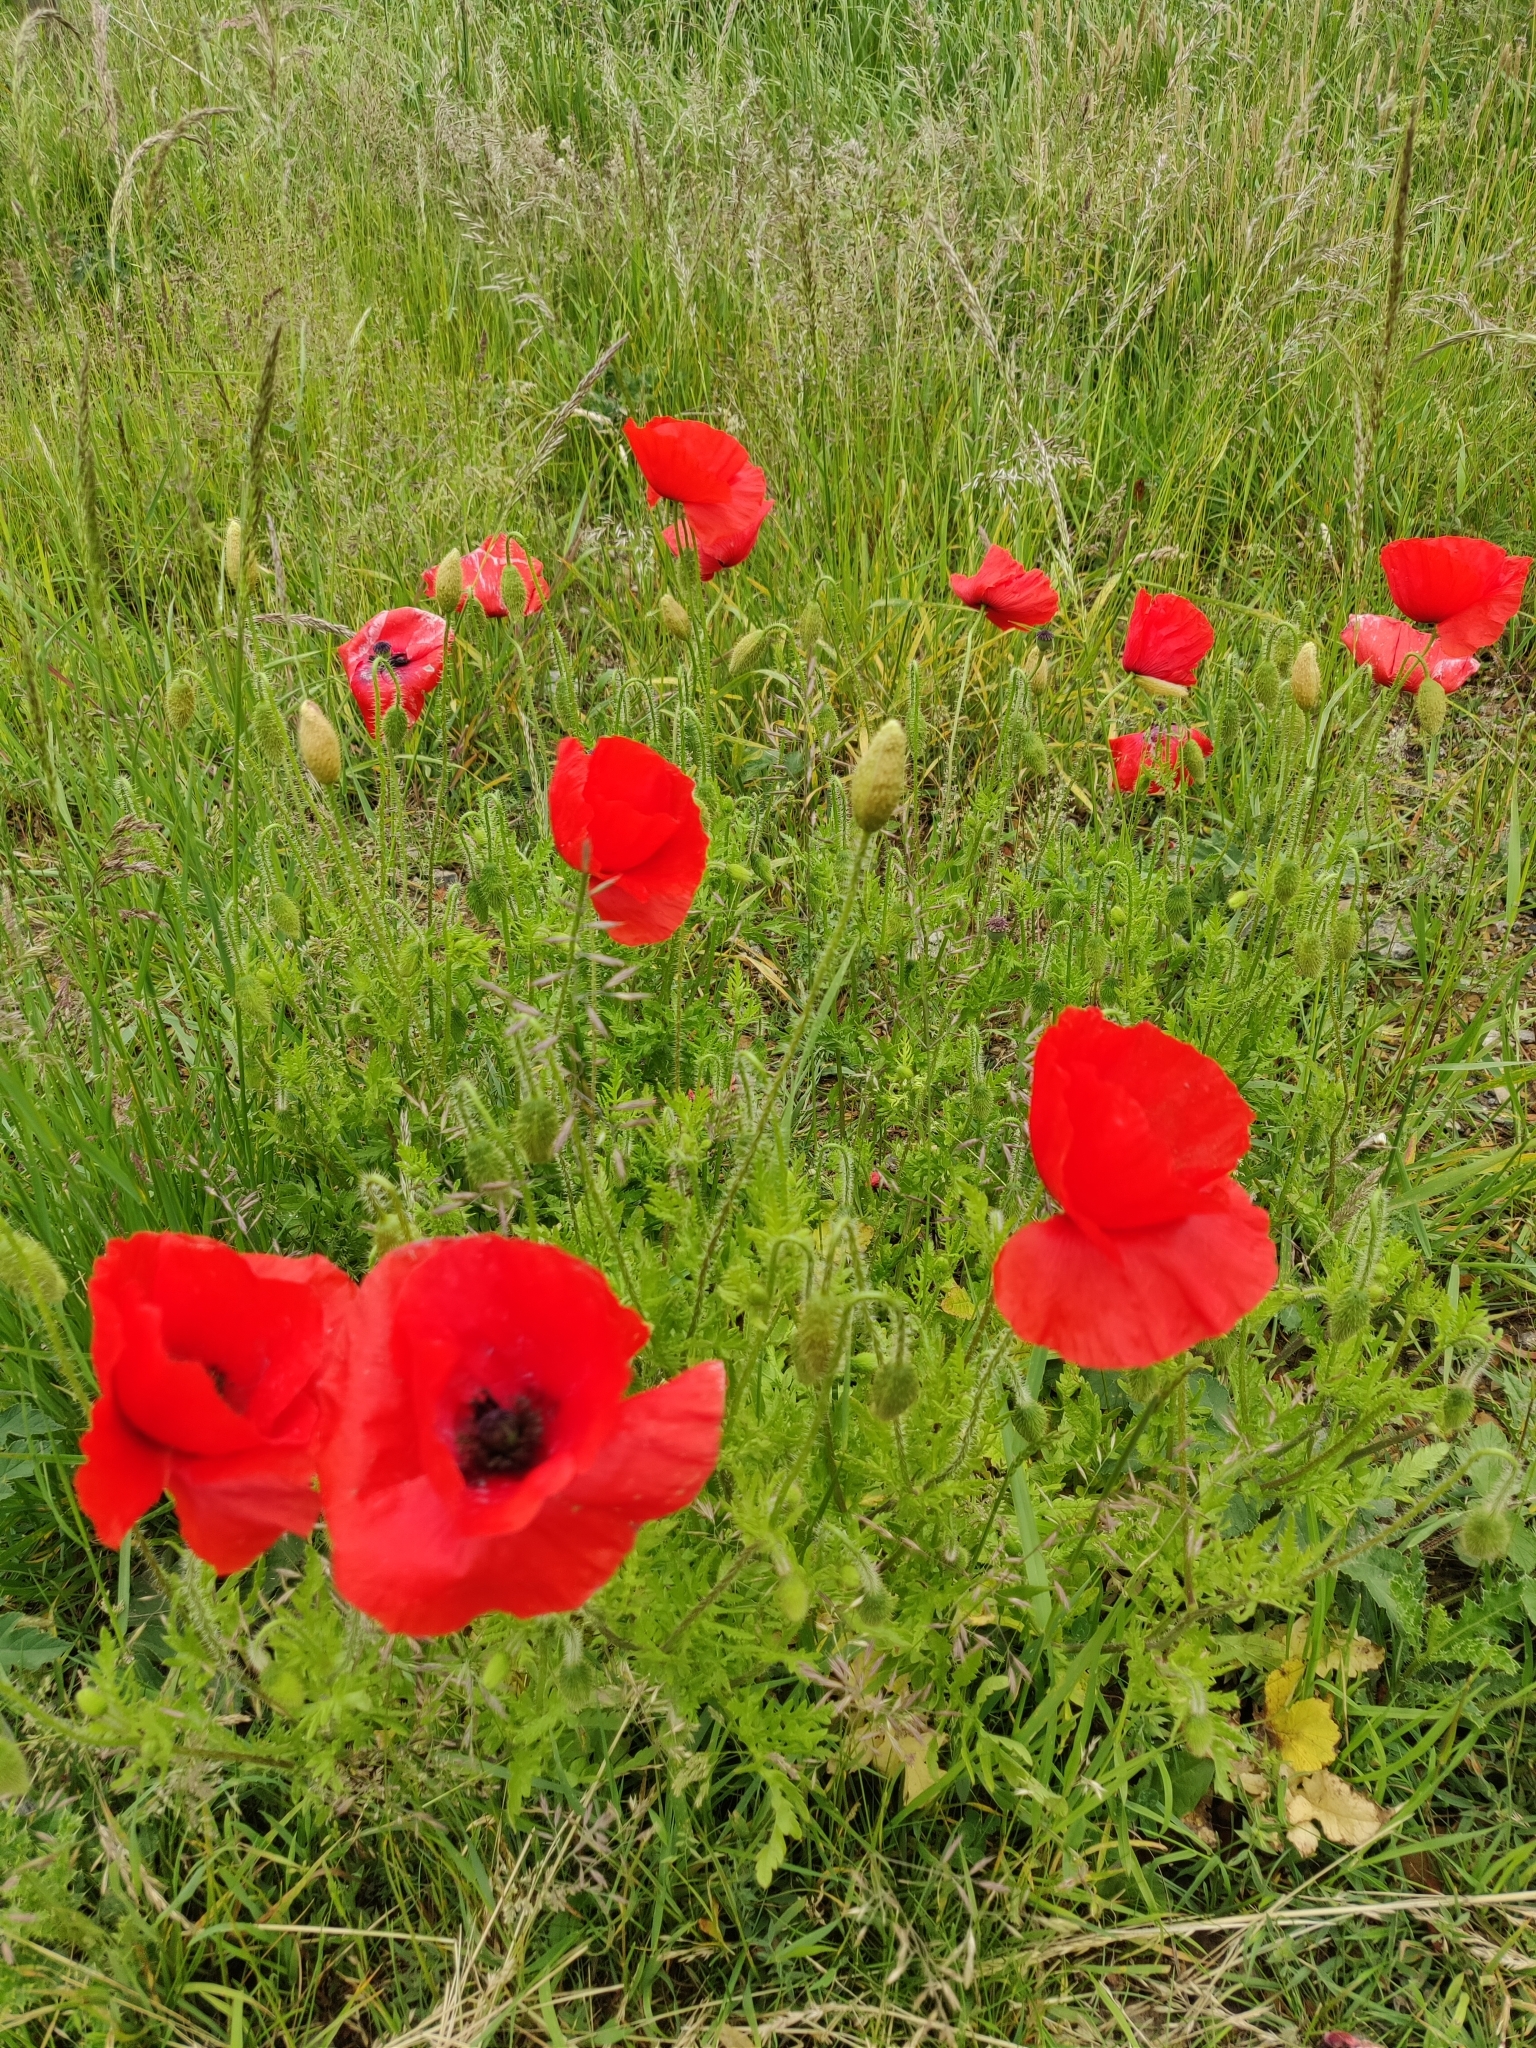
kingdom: Plantae
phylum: Tracheophyta
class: Magnoliopsida
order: Ranunculales
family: Papaveraceae
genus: Papaver
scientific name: Papaver rhoeas
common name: Corn poppy
